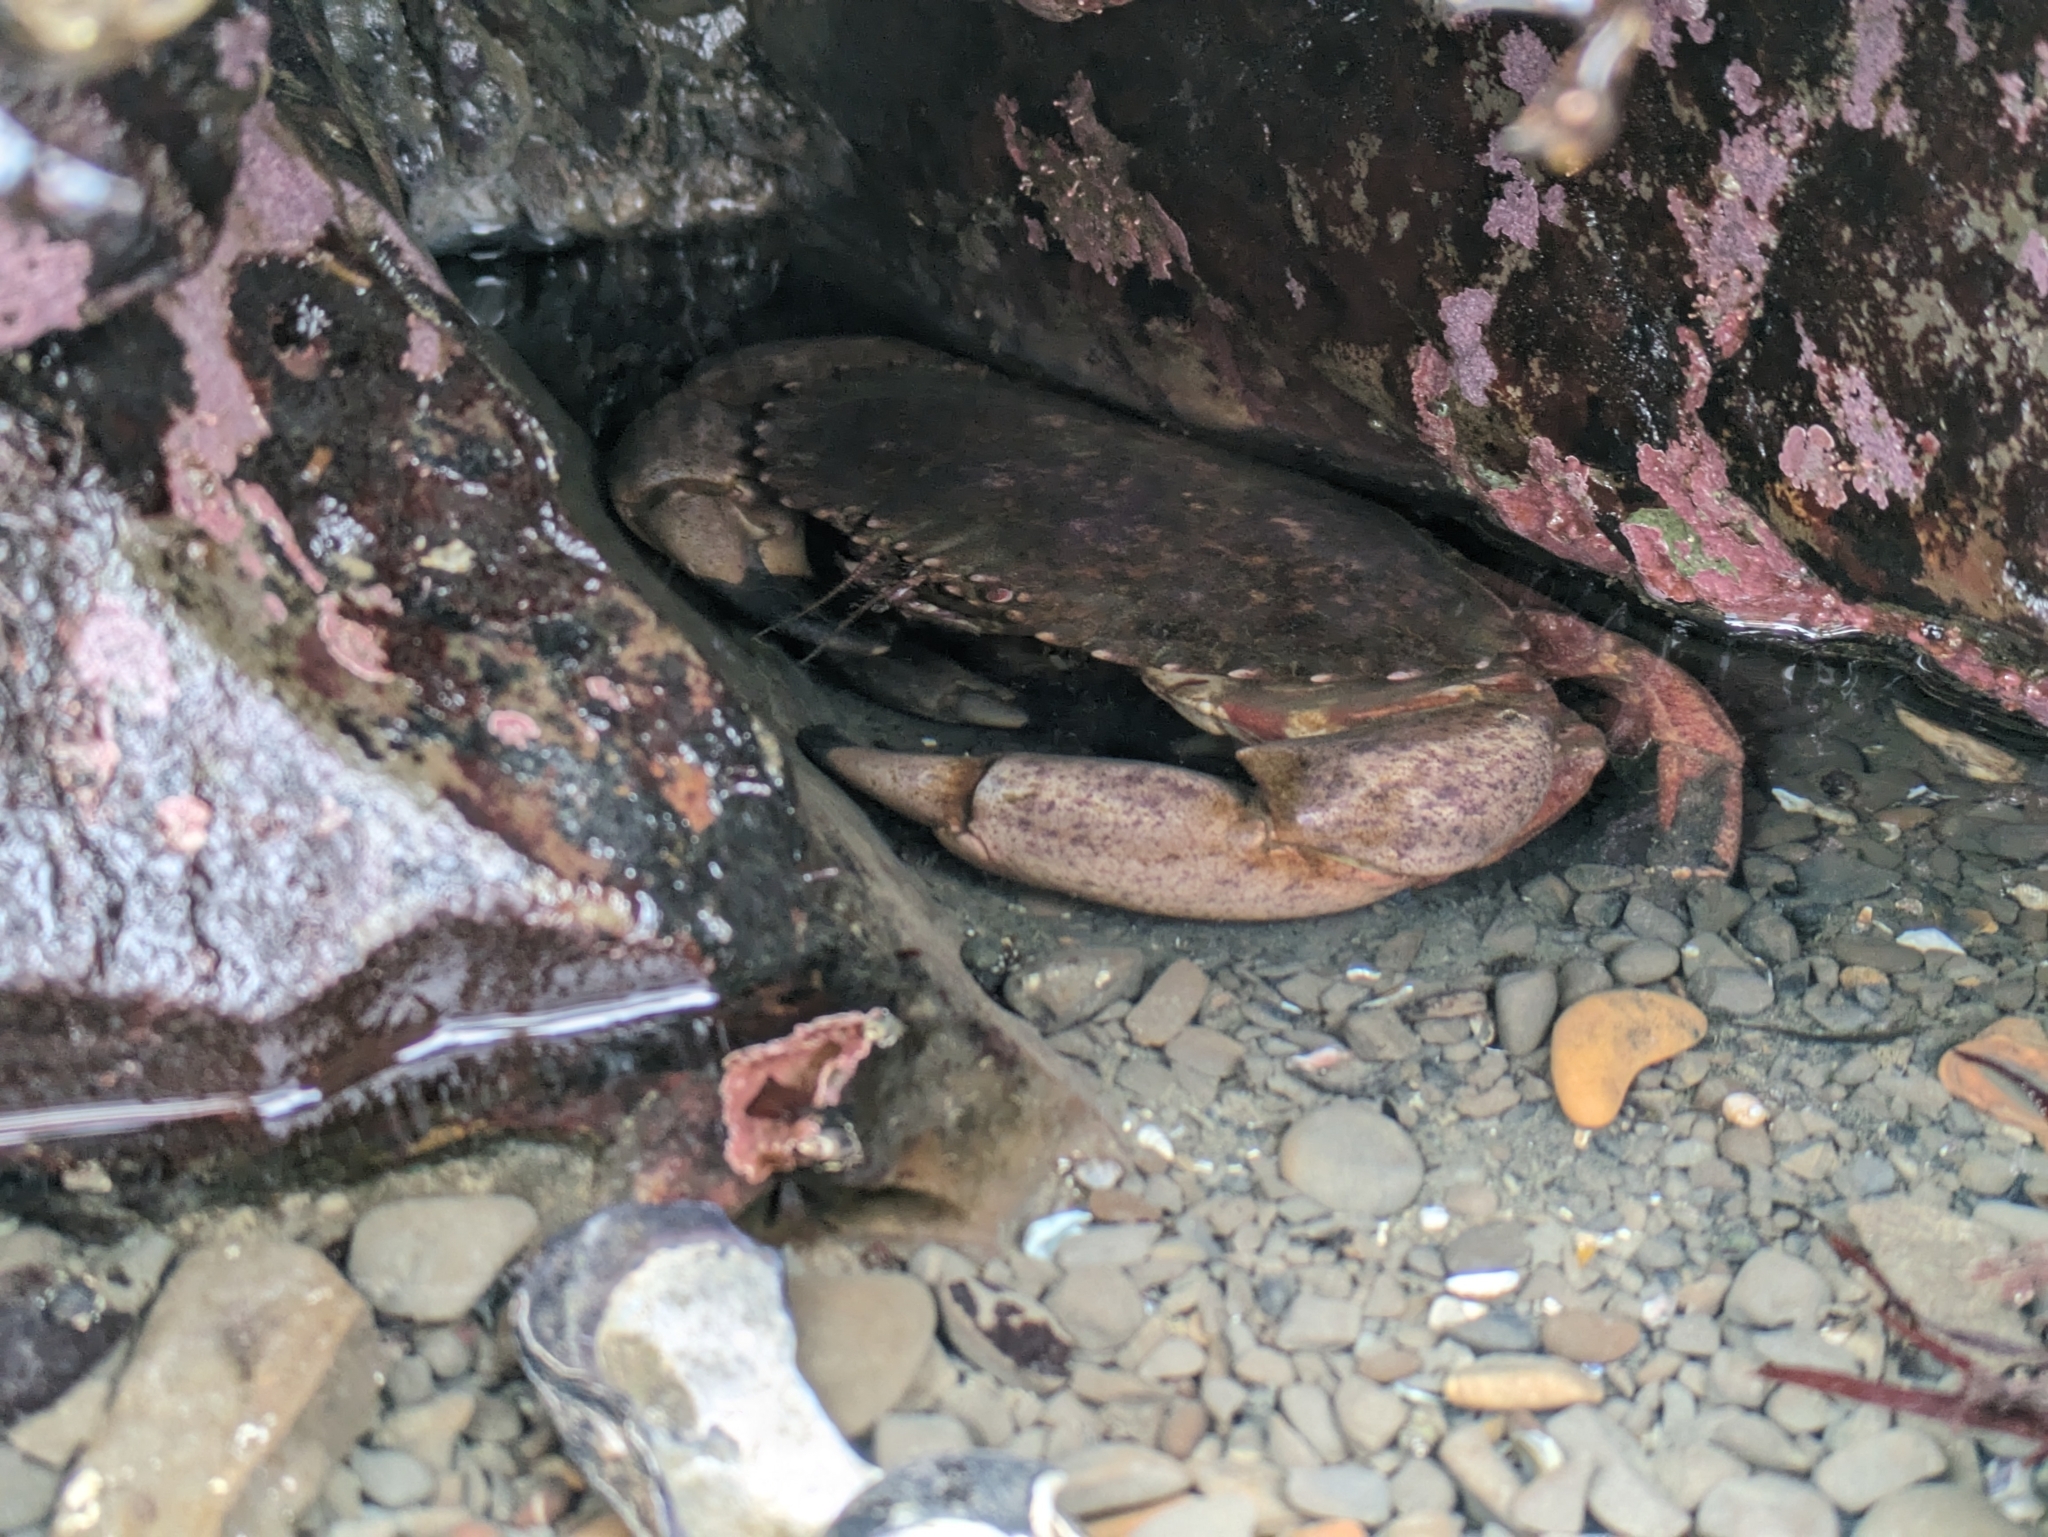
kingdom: Animalia
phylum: Arthropoda
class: Malacostraca
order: Decapoda
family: Cancridae
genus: Romaleon
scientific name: Romaleon antennarium
